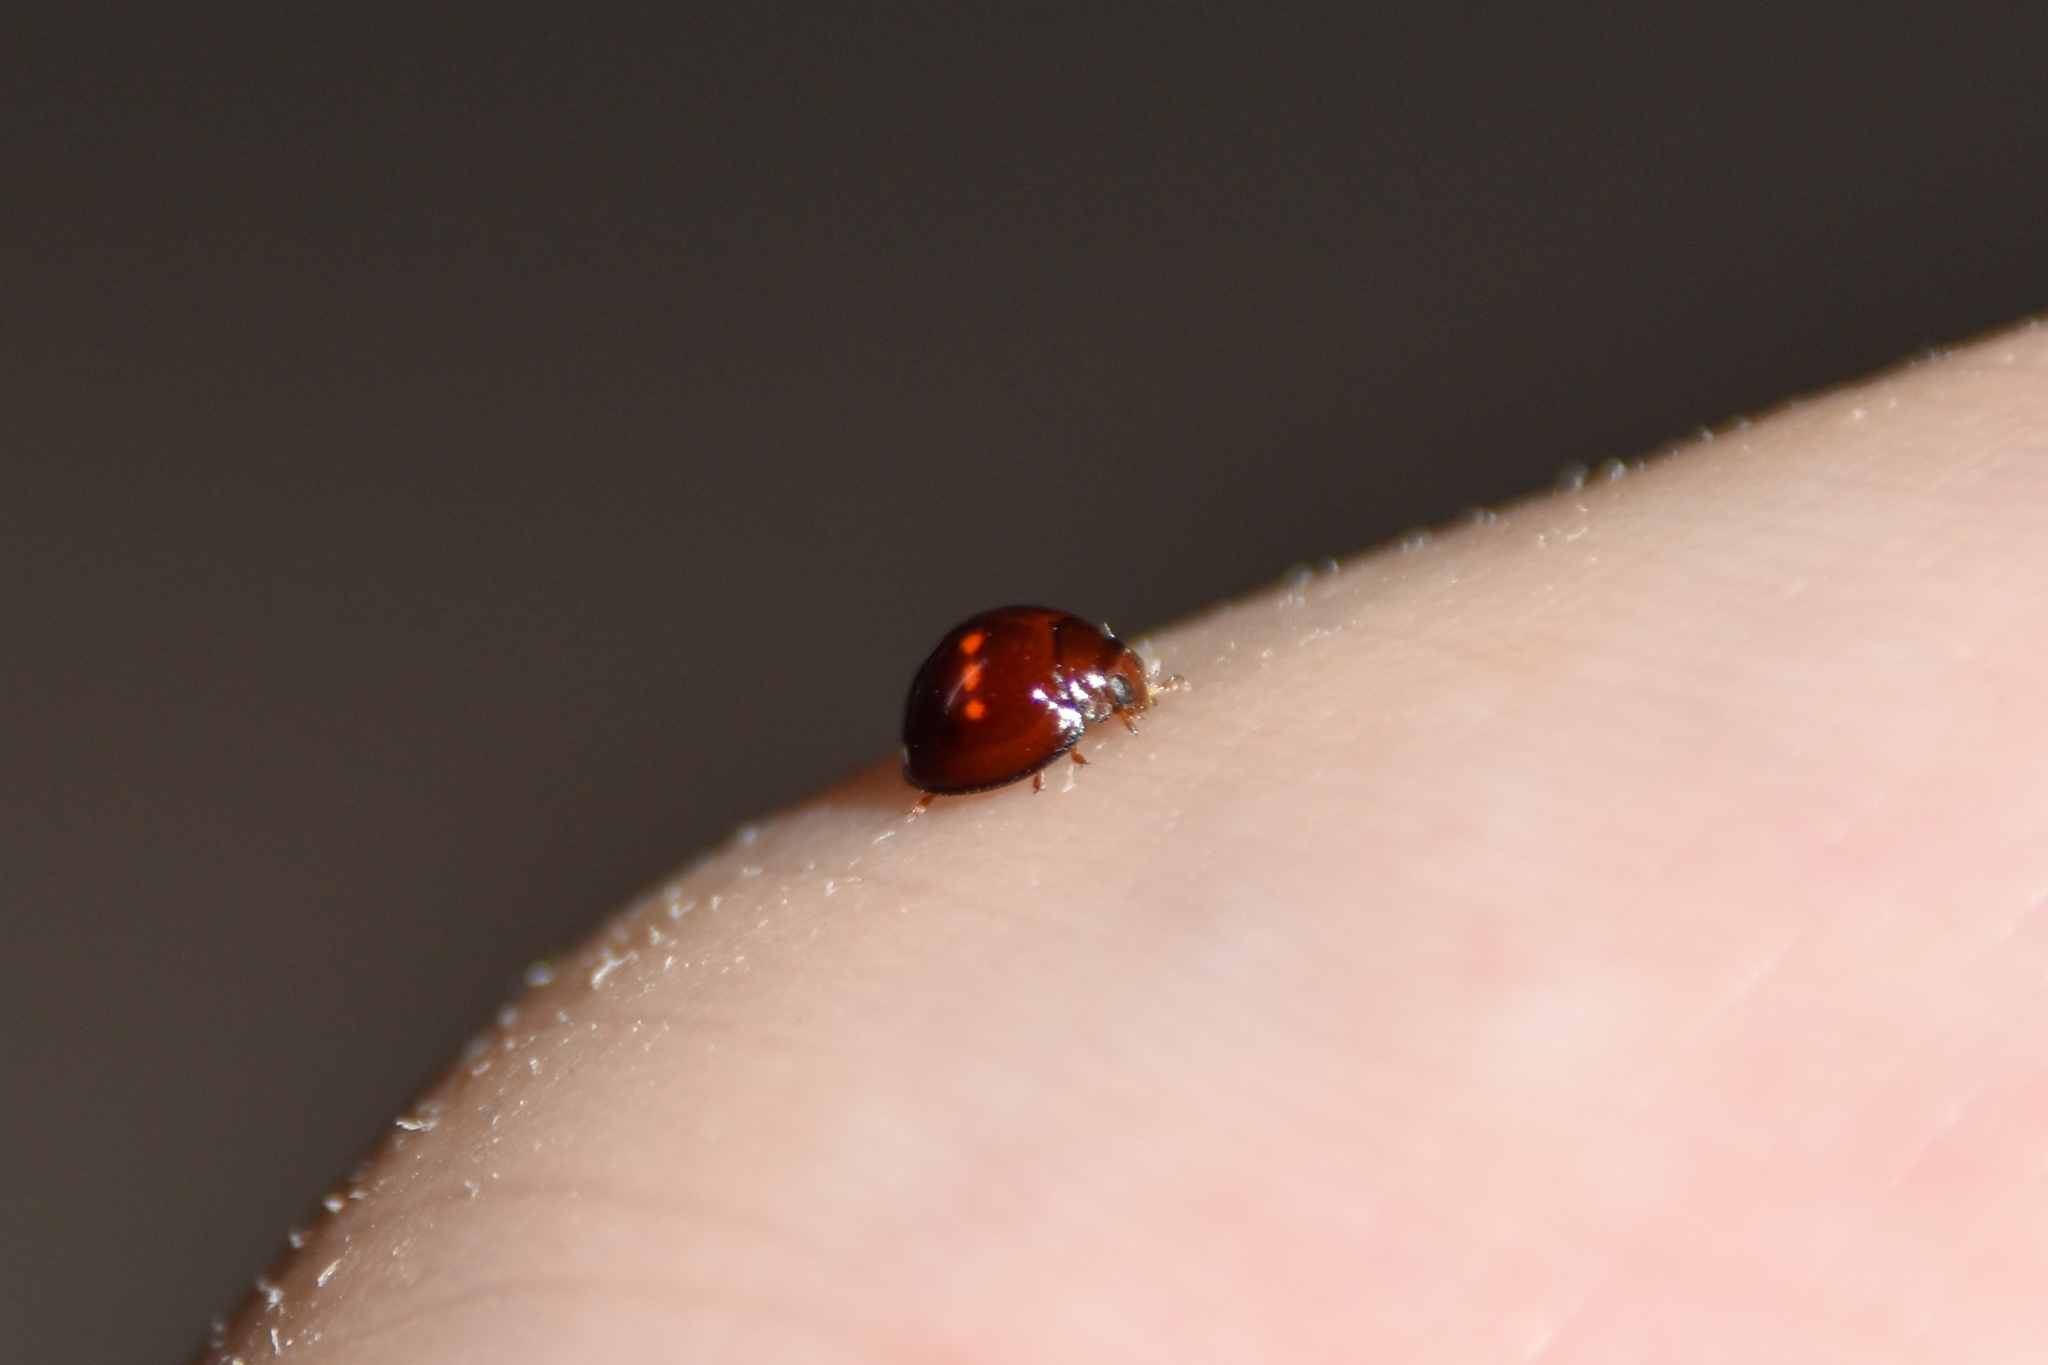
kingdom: Animalia
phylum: Arthropoda
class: Insecta
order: Coleoptera
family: Coccinellidae
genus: Chilocorus
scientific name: Chilocorus bipustulatus
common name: Heather ladybird
